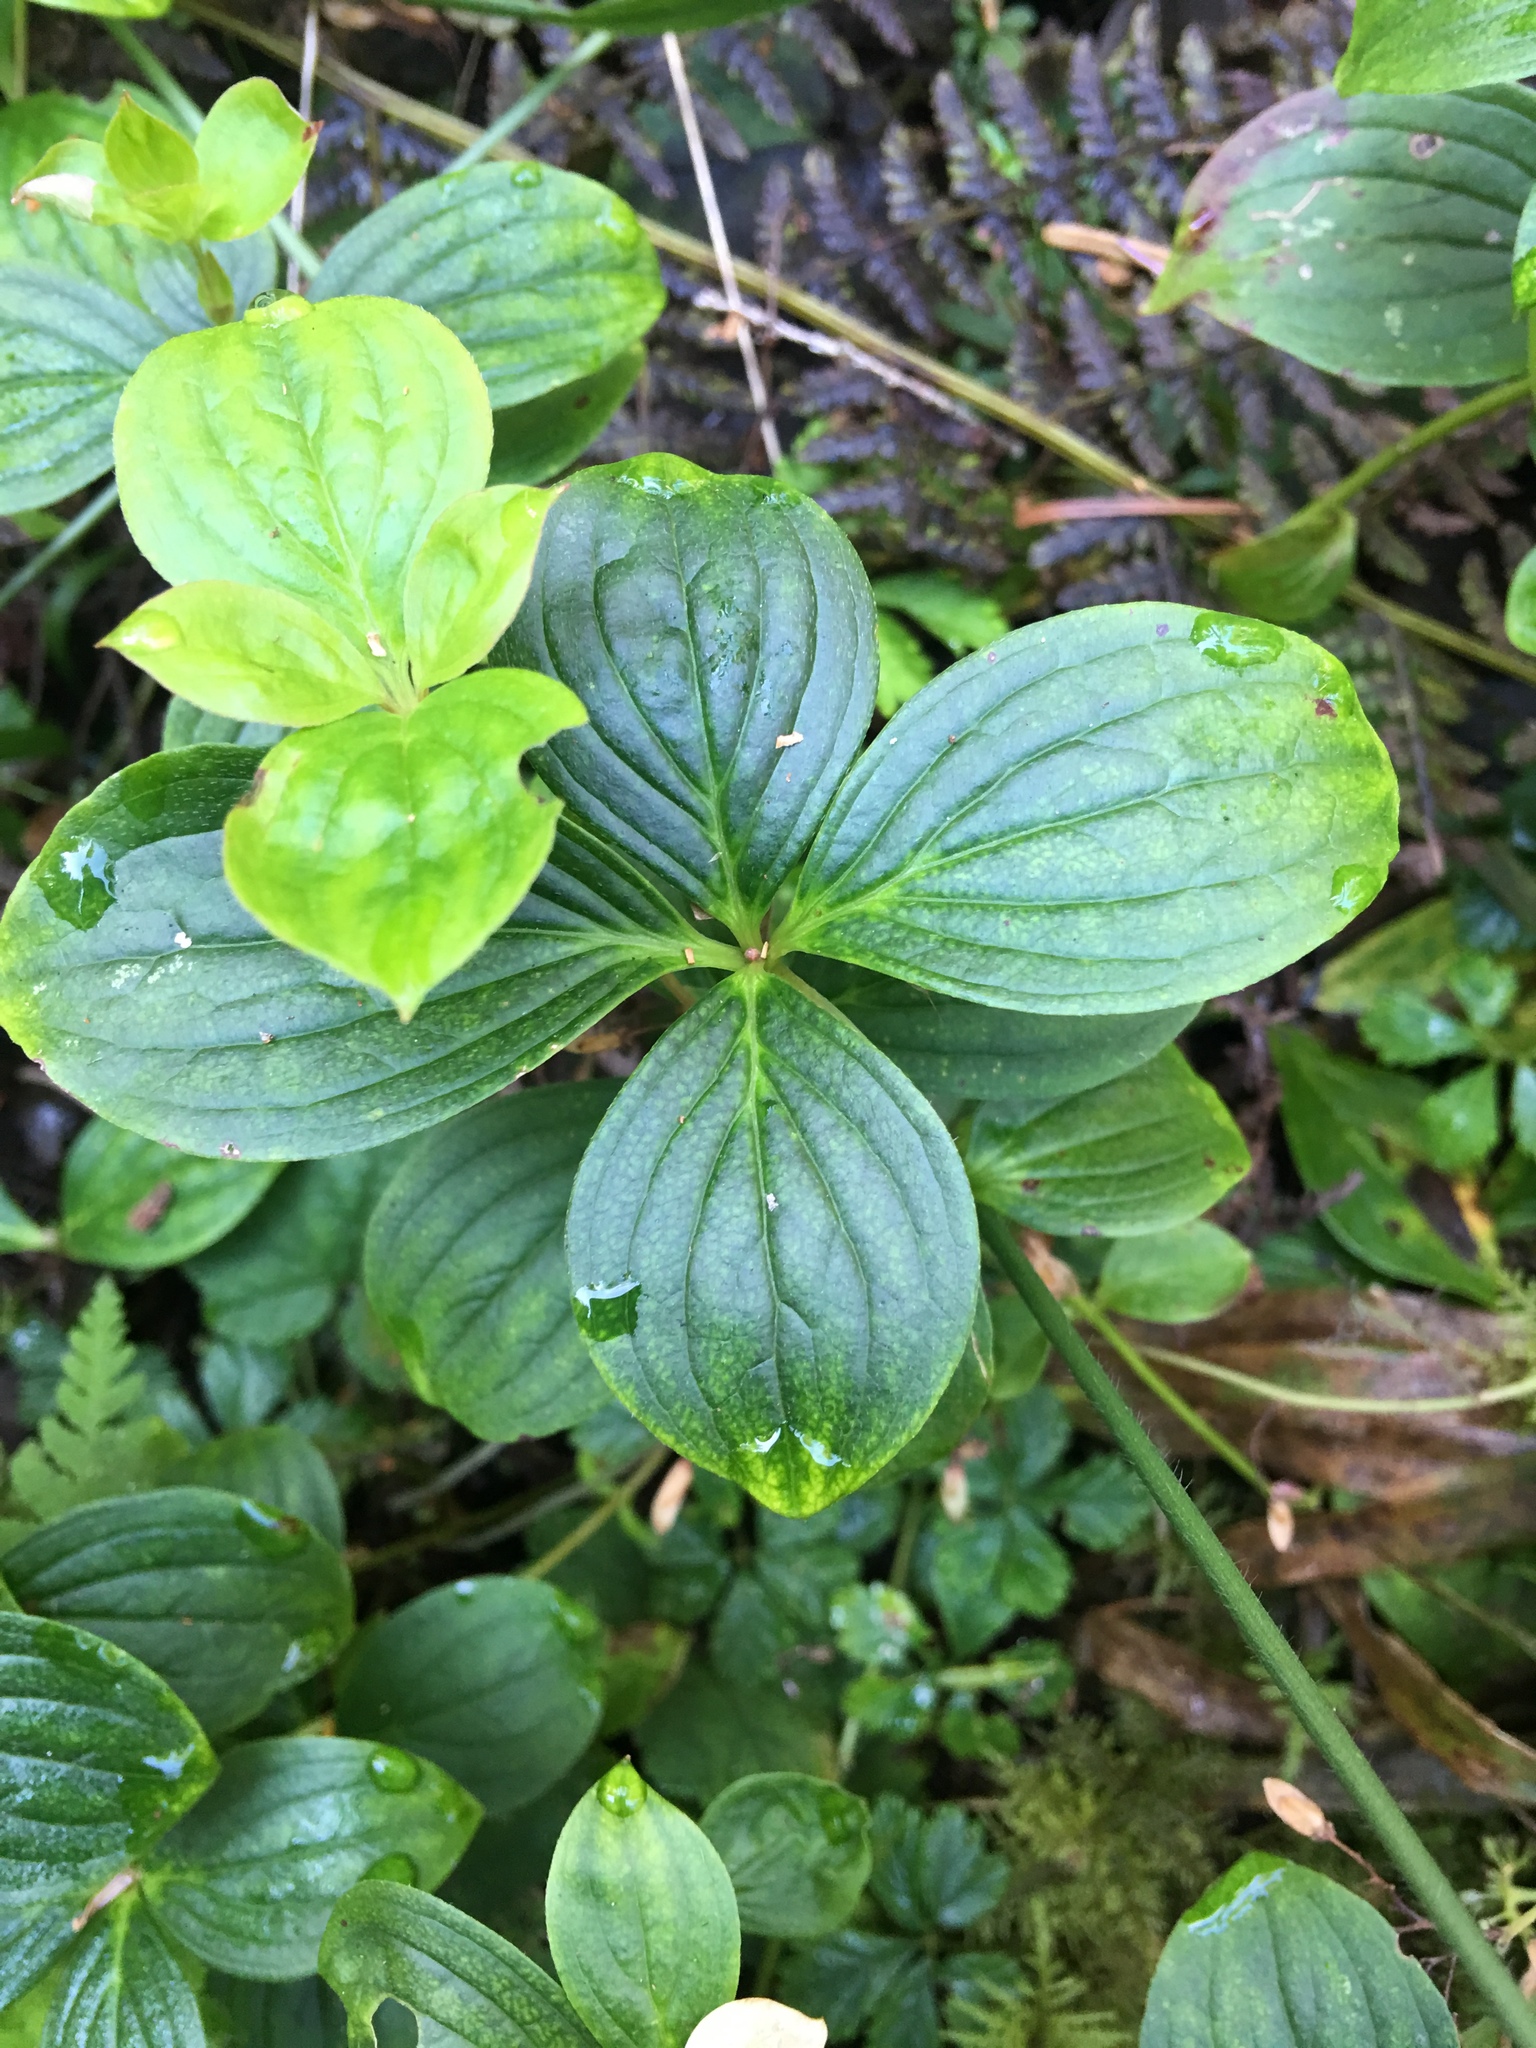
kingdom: Plantae
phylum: Tracheophyta
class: Magnoliopsida
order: Cornales
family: Cornaceae
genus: Cornus
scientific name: Cornus unalaschkensis
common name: Alaska bunchberry
